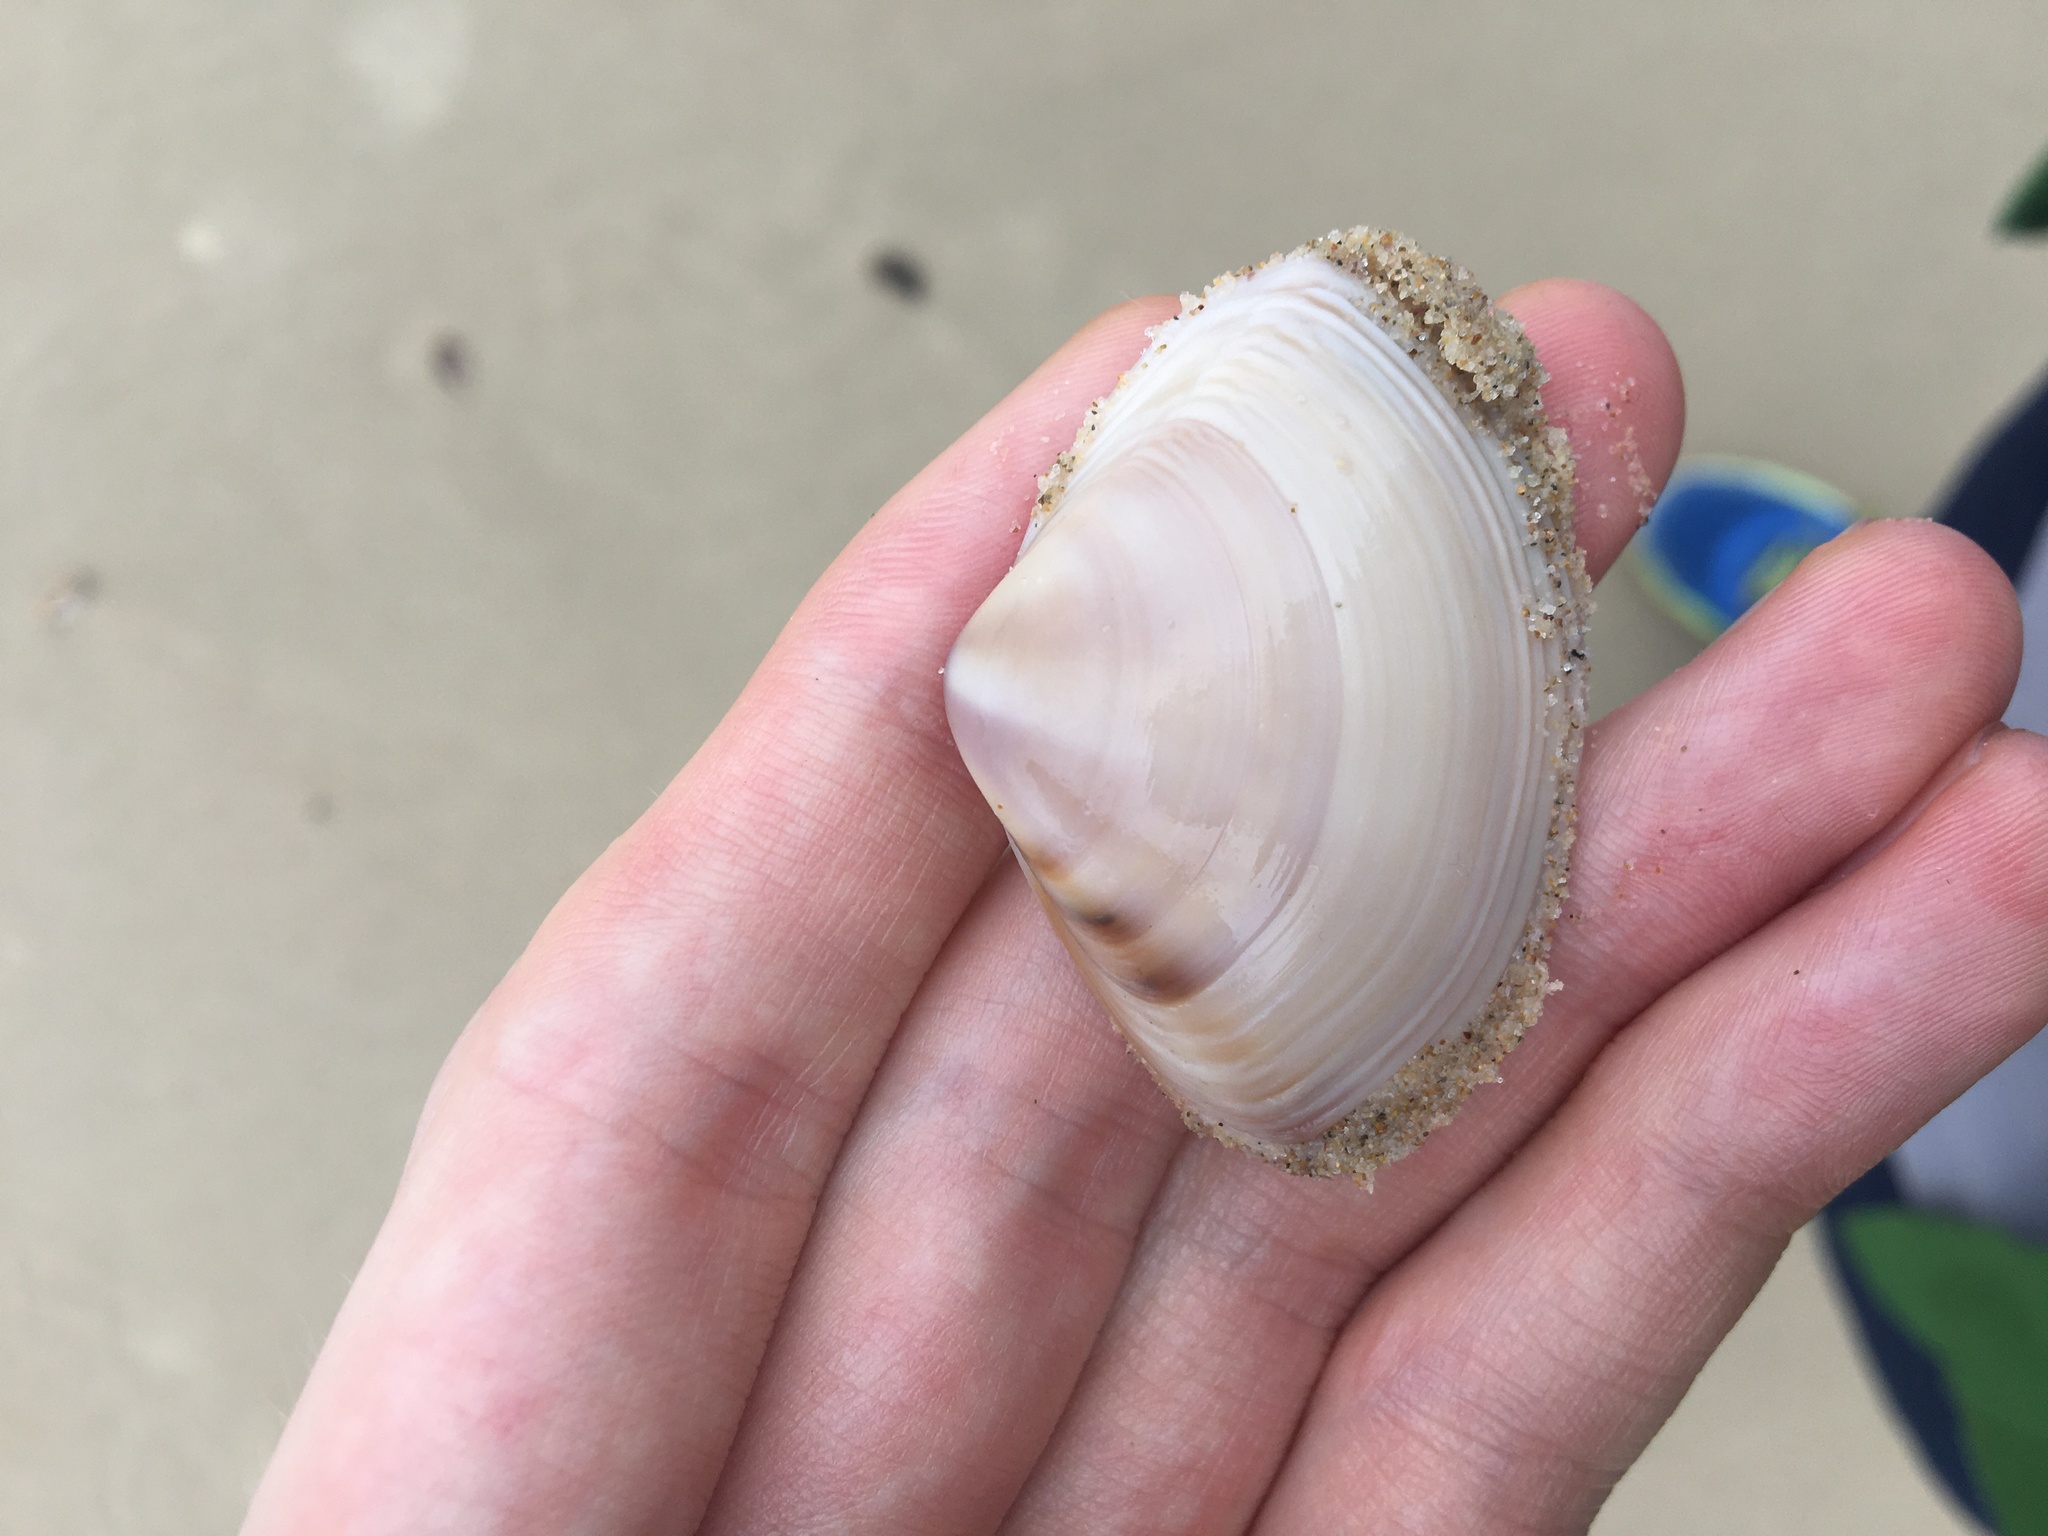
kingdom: Animalia
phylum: Mollusca
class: Bivalvia
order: Venerida
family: Mactridae
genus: Austromactra
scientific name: Austromactra rufescens
